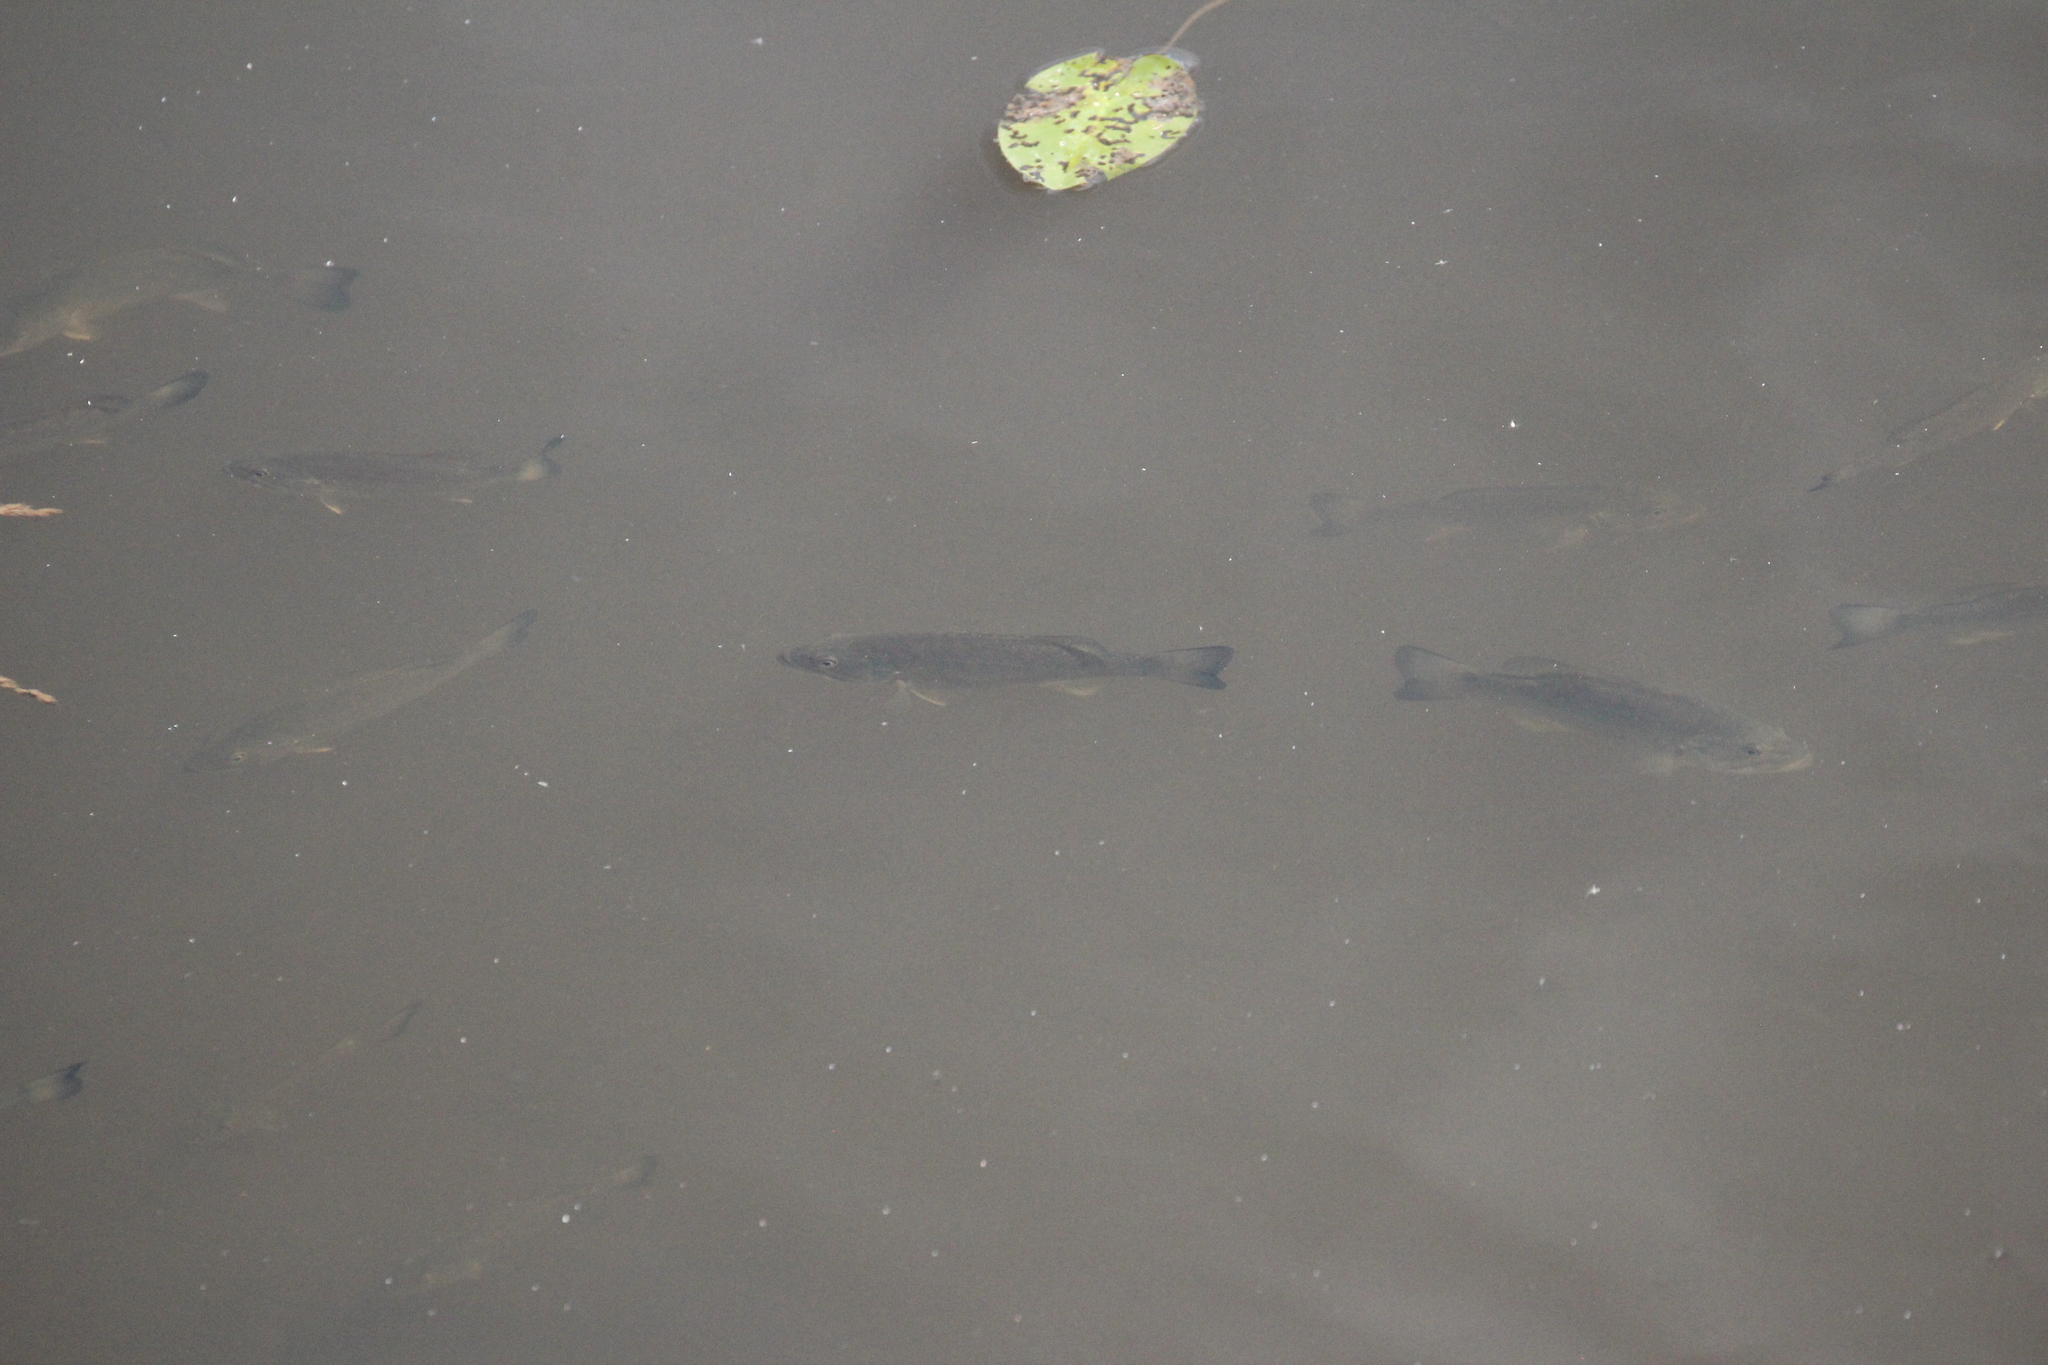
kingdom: Animalia
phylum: Chordata
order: Perciformes
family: Centrarchidae
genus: Micropterus
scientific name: Micropterus dolomieu
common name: Smallmouth bass
